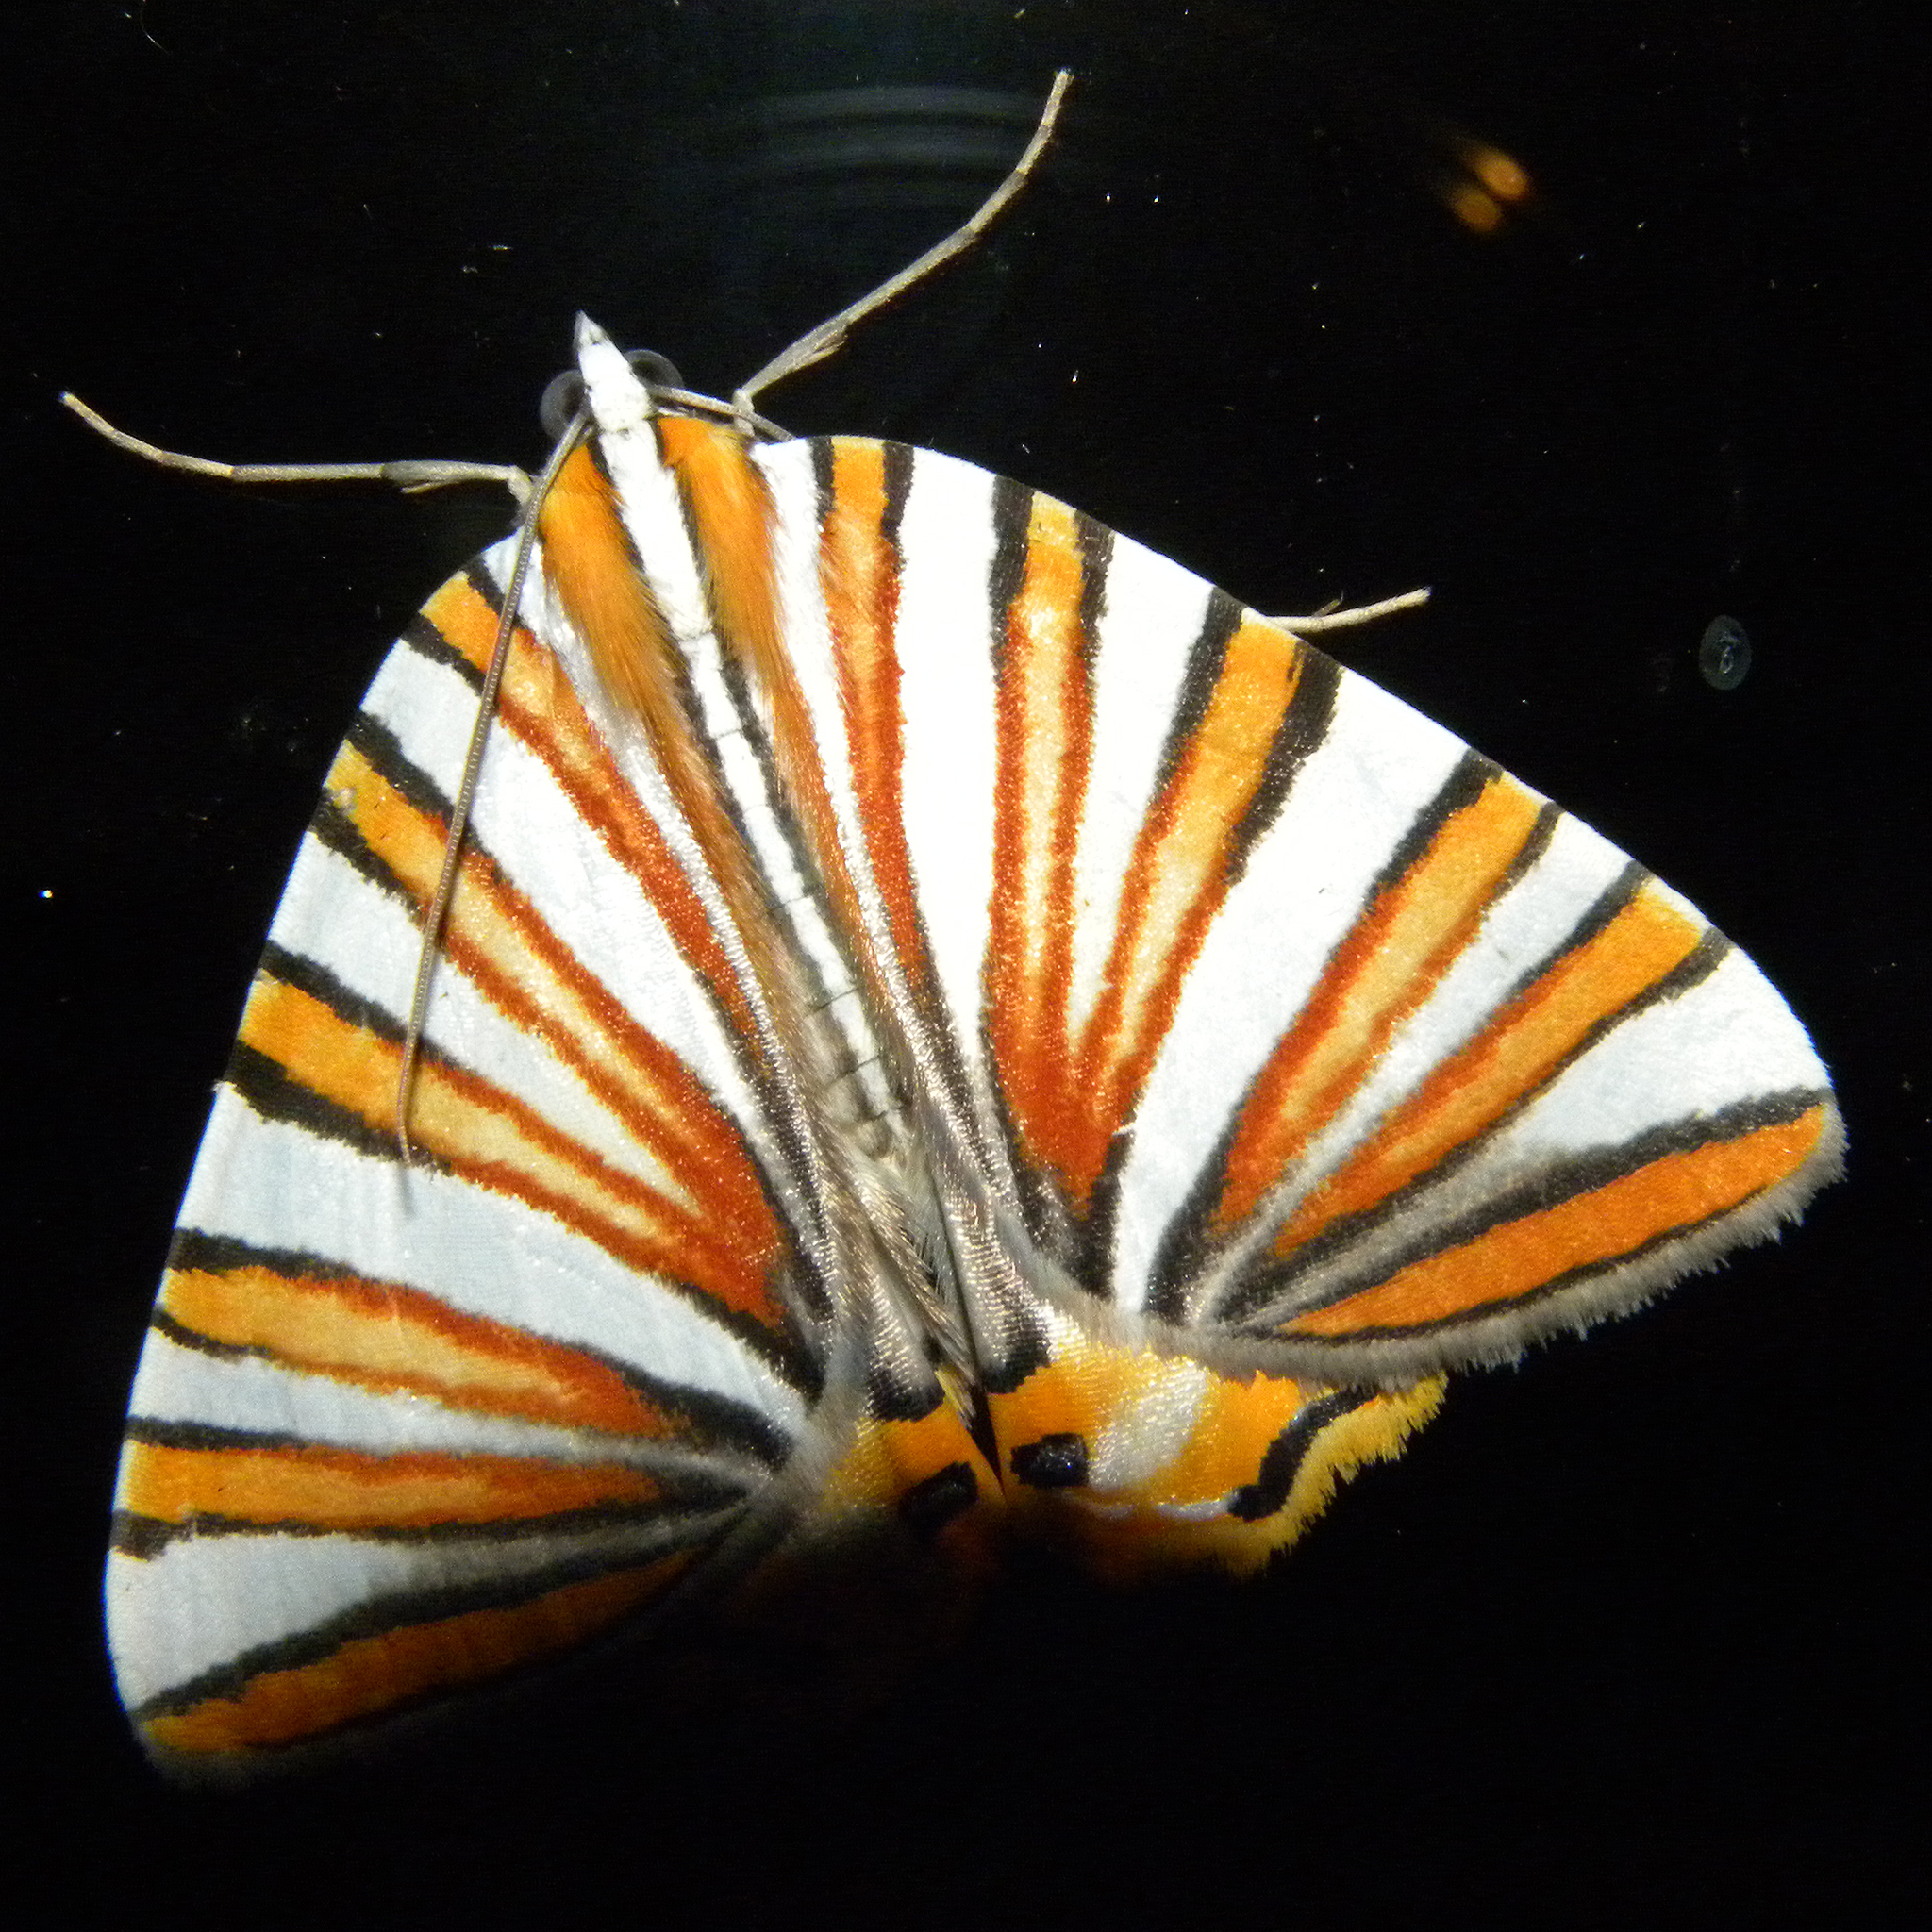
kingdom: Animalia
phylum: Arthropoda
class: Insecta
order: Lepidoptera
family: Geometridae
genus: Pityeja
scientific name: Pityeja histrionaria
